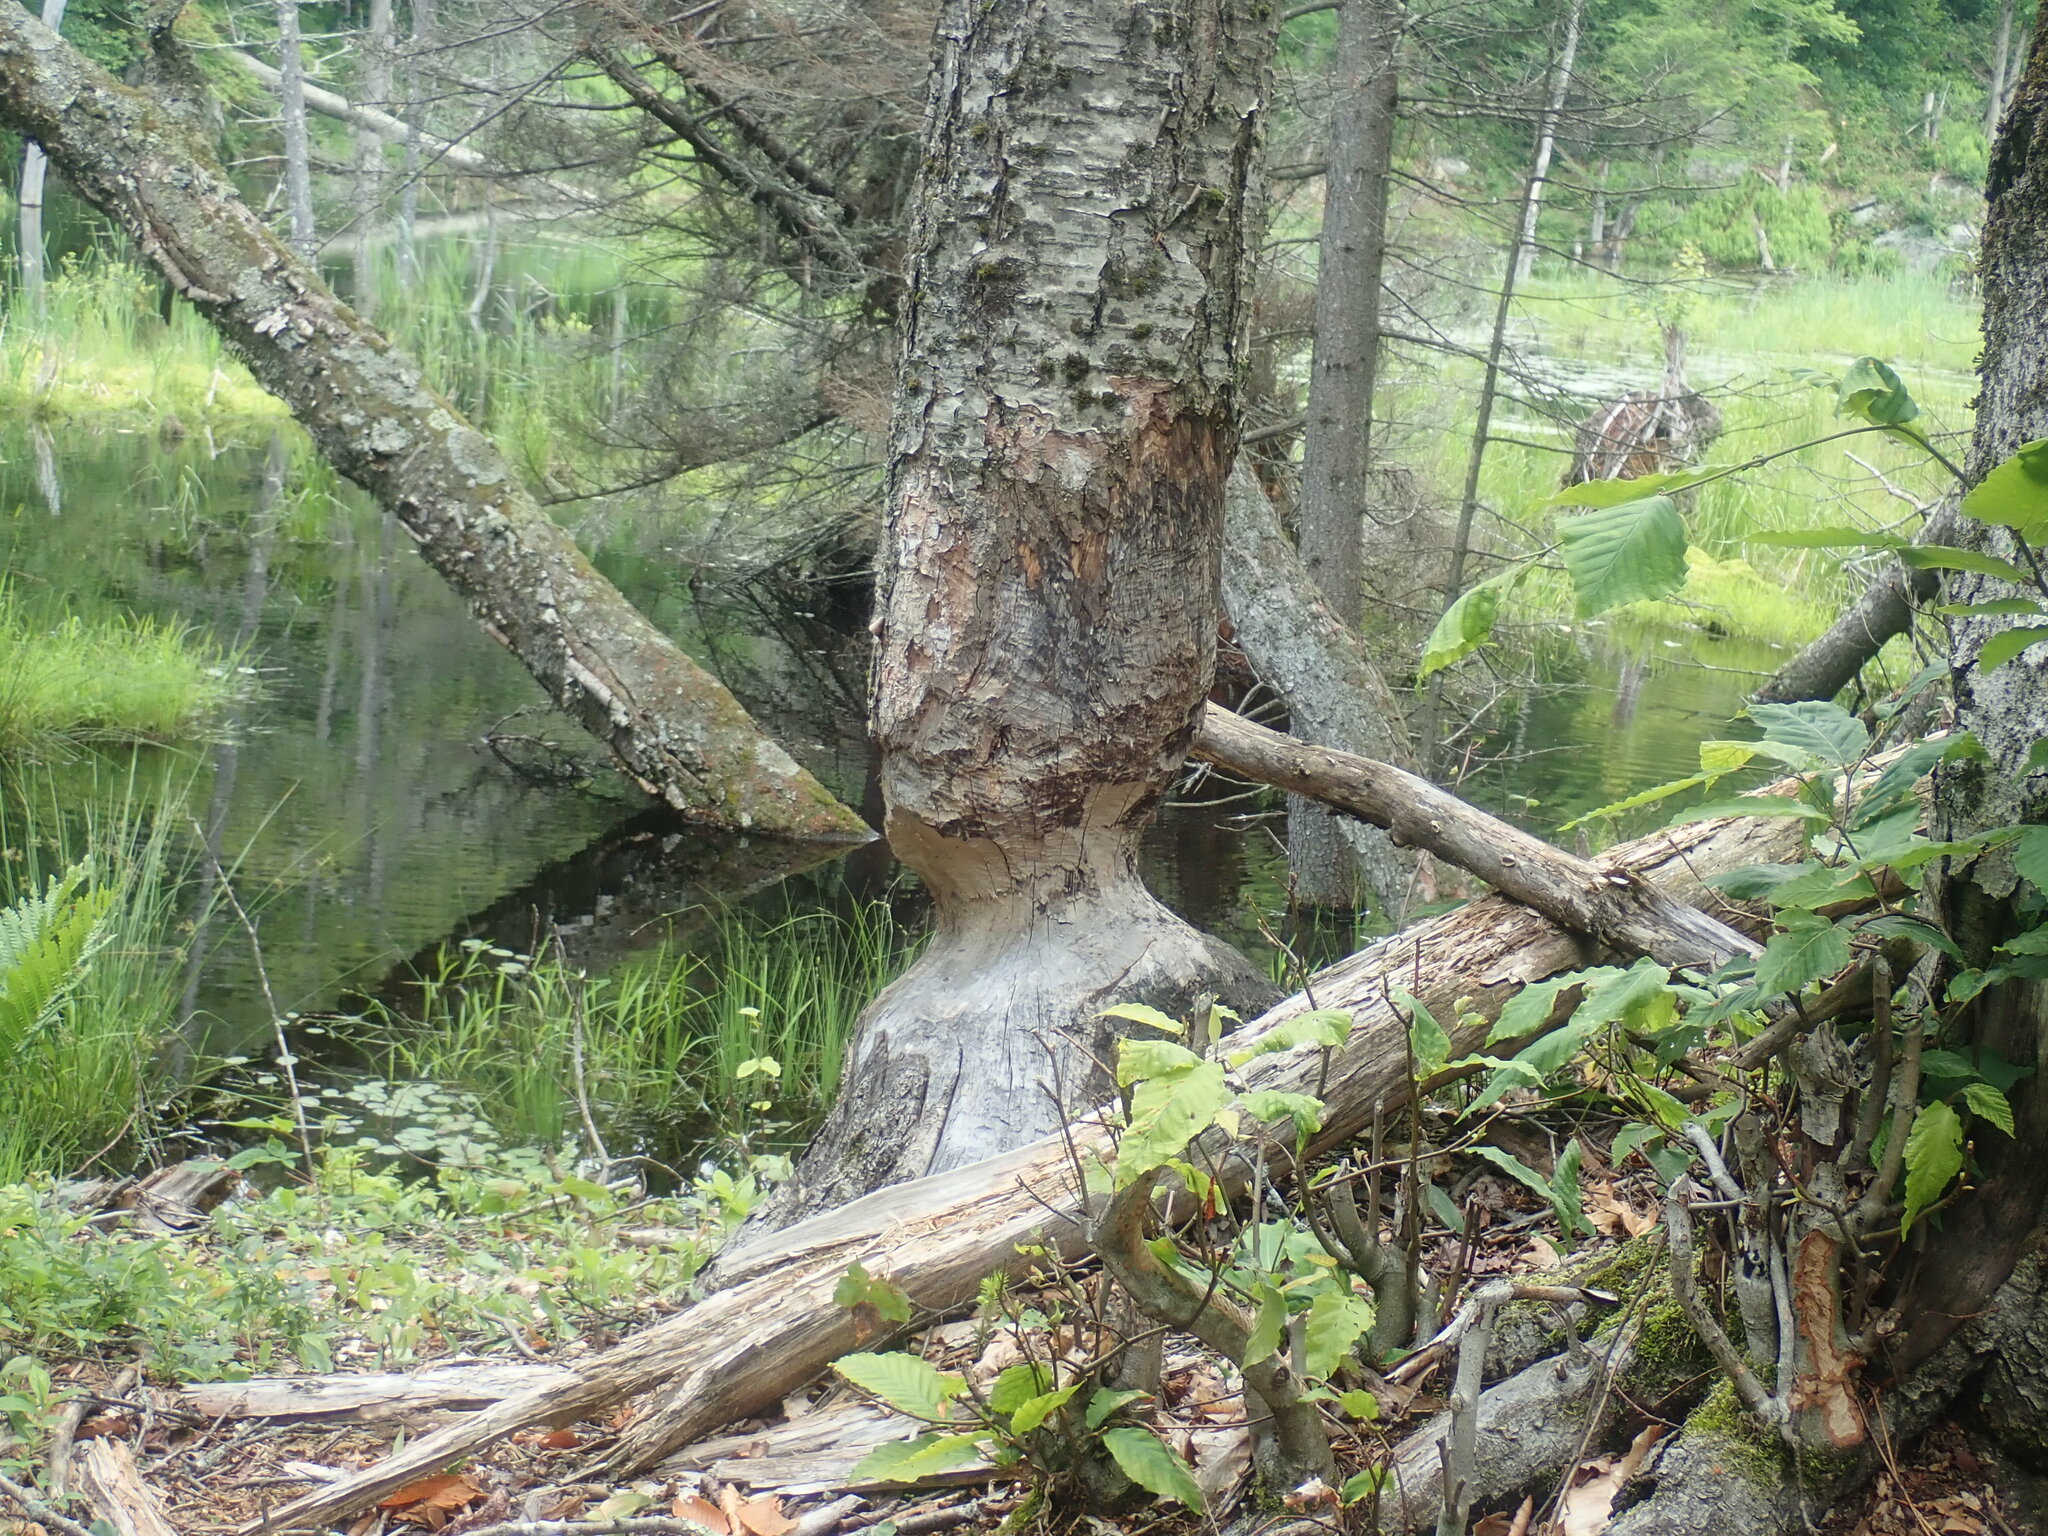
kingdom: Animalia
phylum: Chordata
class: Mammalia
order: Rodentia
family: Castoridae
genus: Castor
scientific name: Castor canadensis
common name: American beaver
